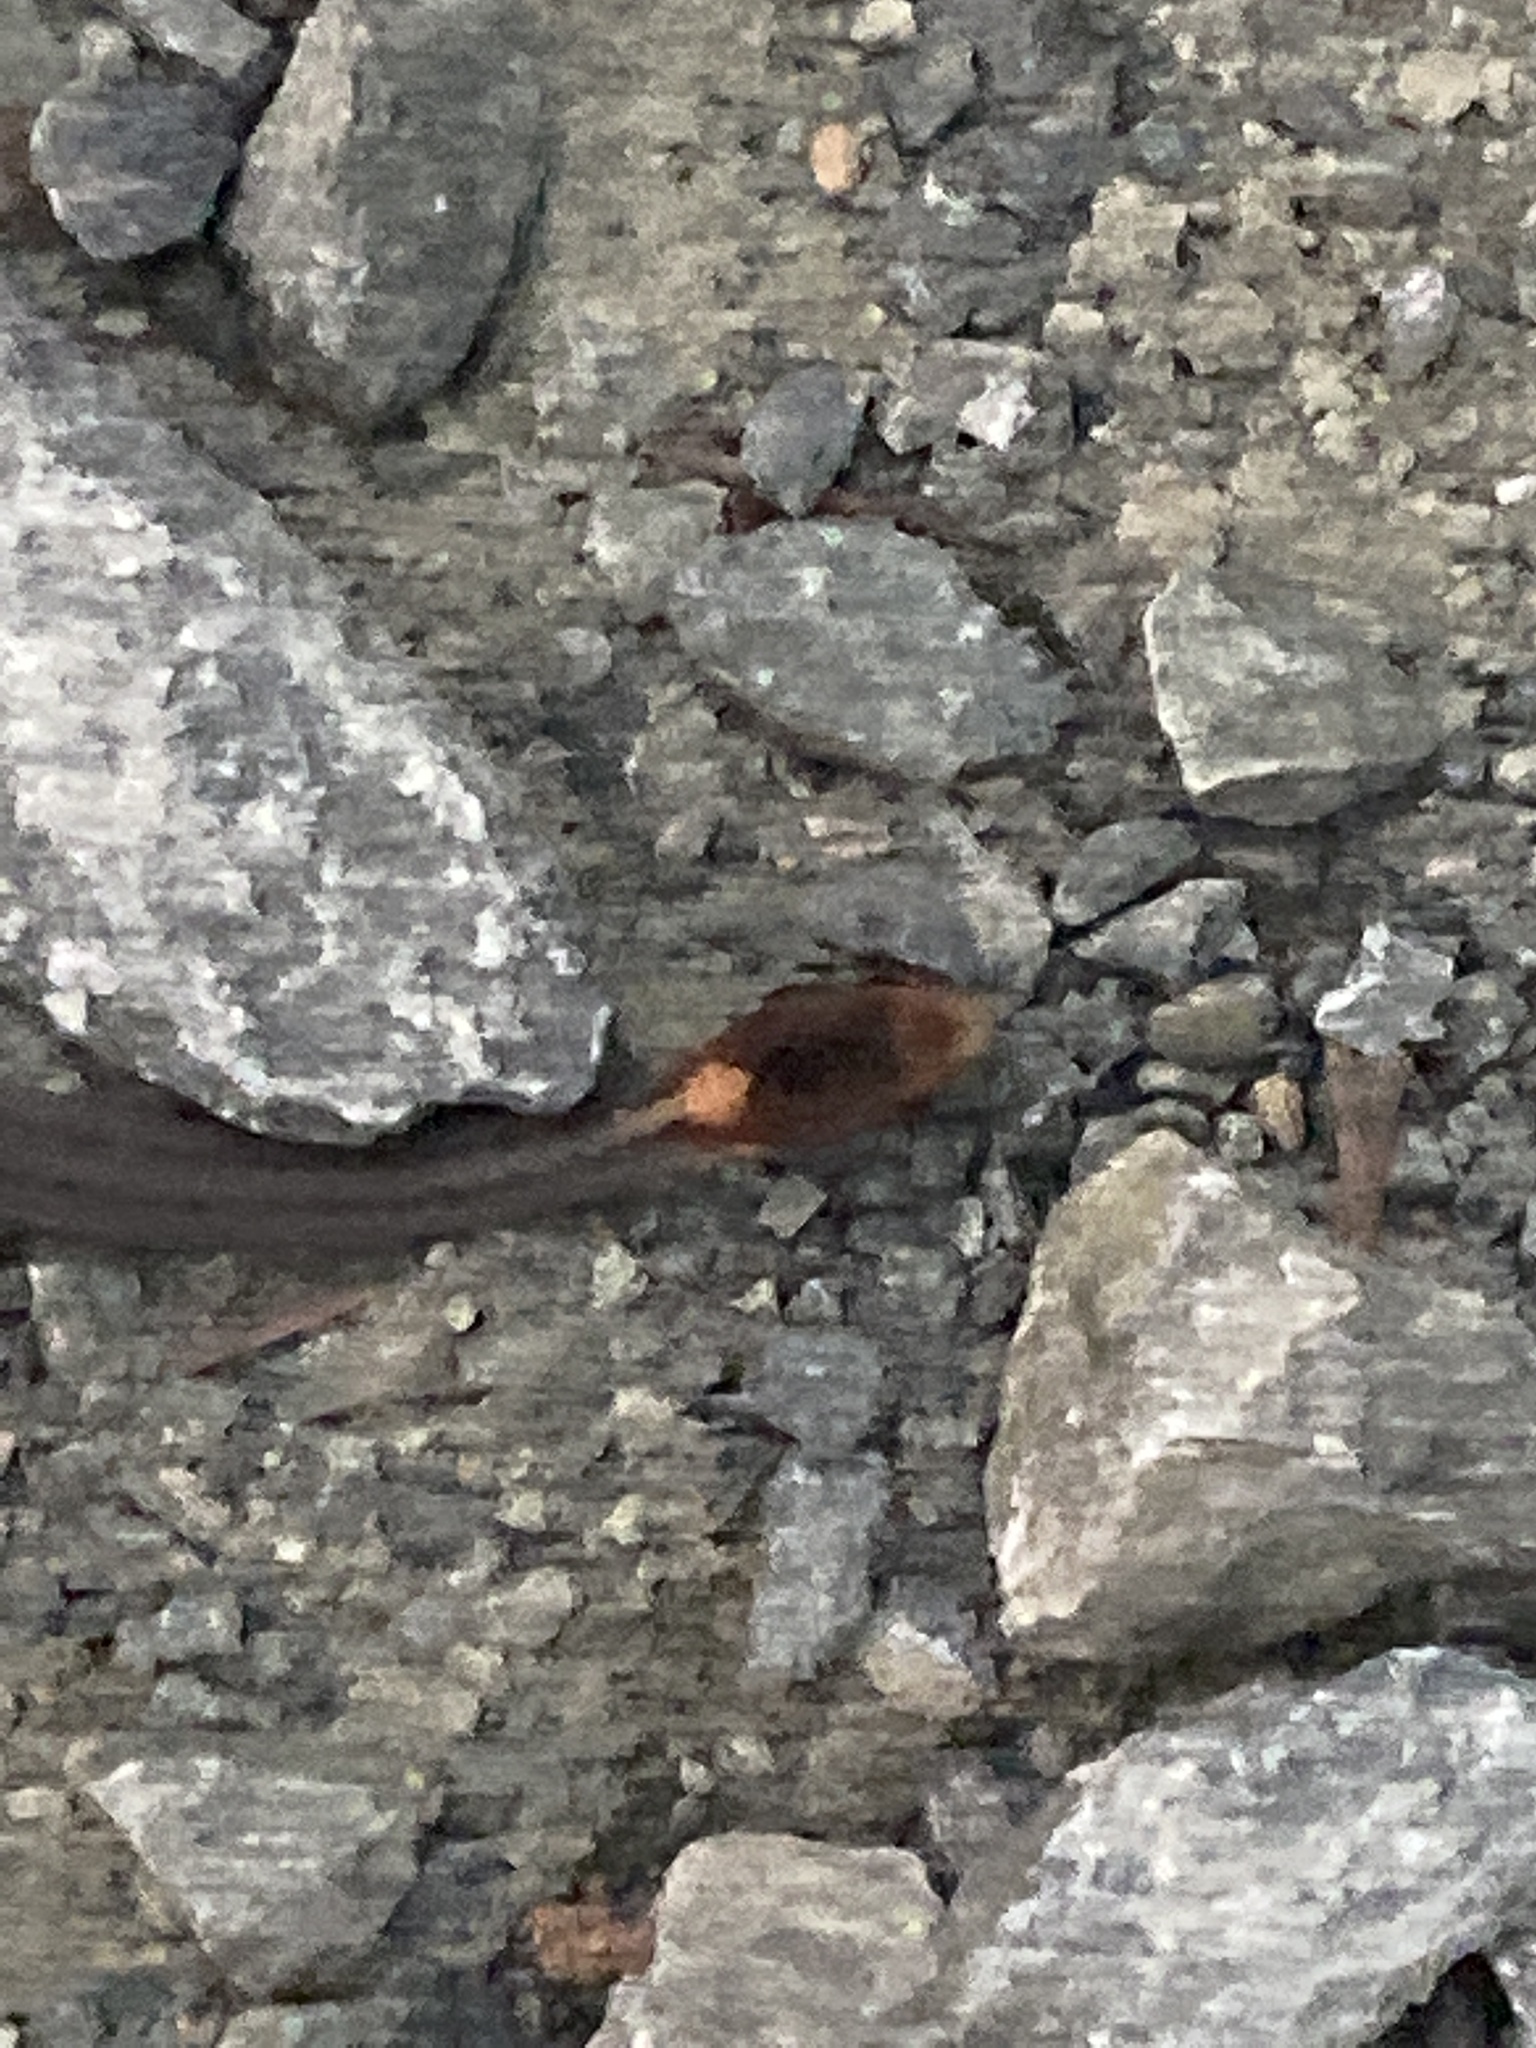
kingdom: Animalia
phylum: Chordata
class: Squamata
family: Colubridae
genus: Storeria
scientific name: Storeria occipitomaculata
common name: Redbelly snake
